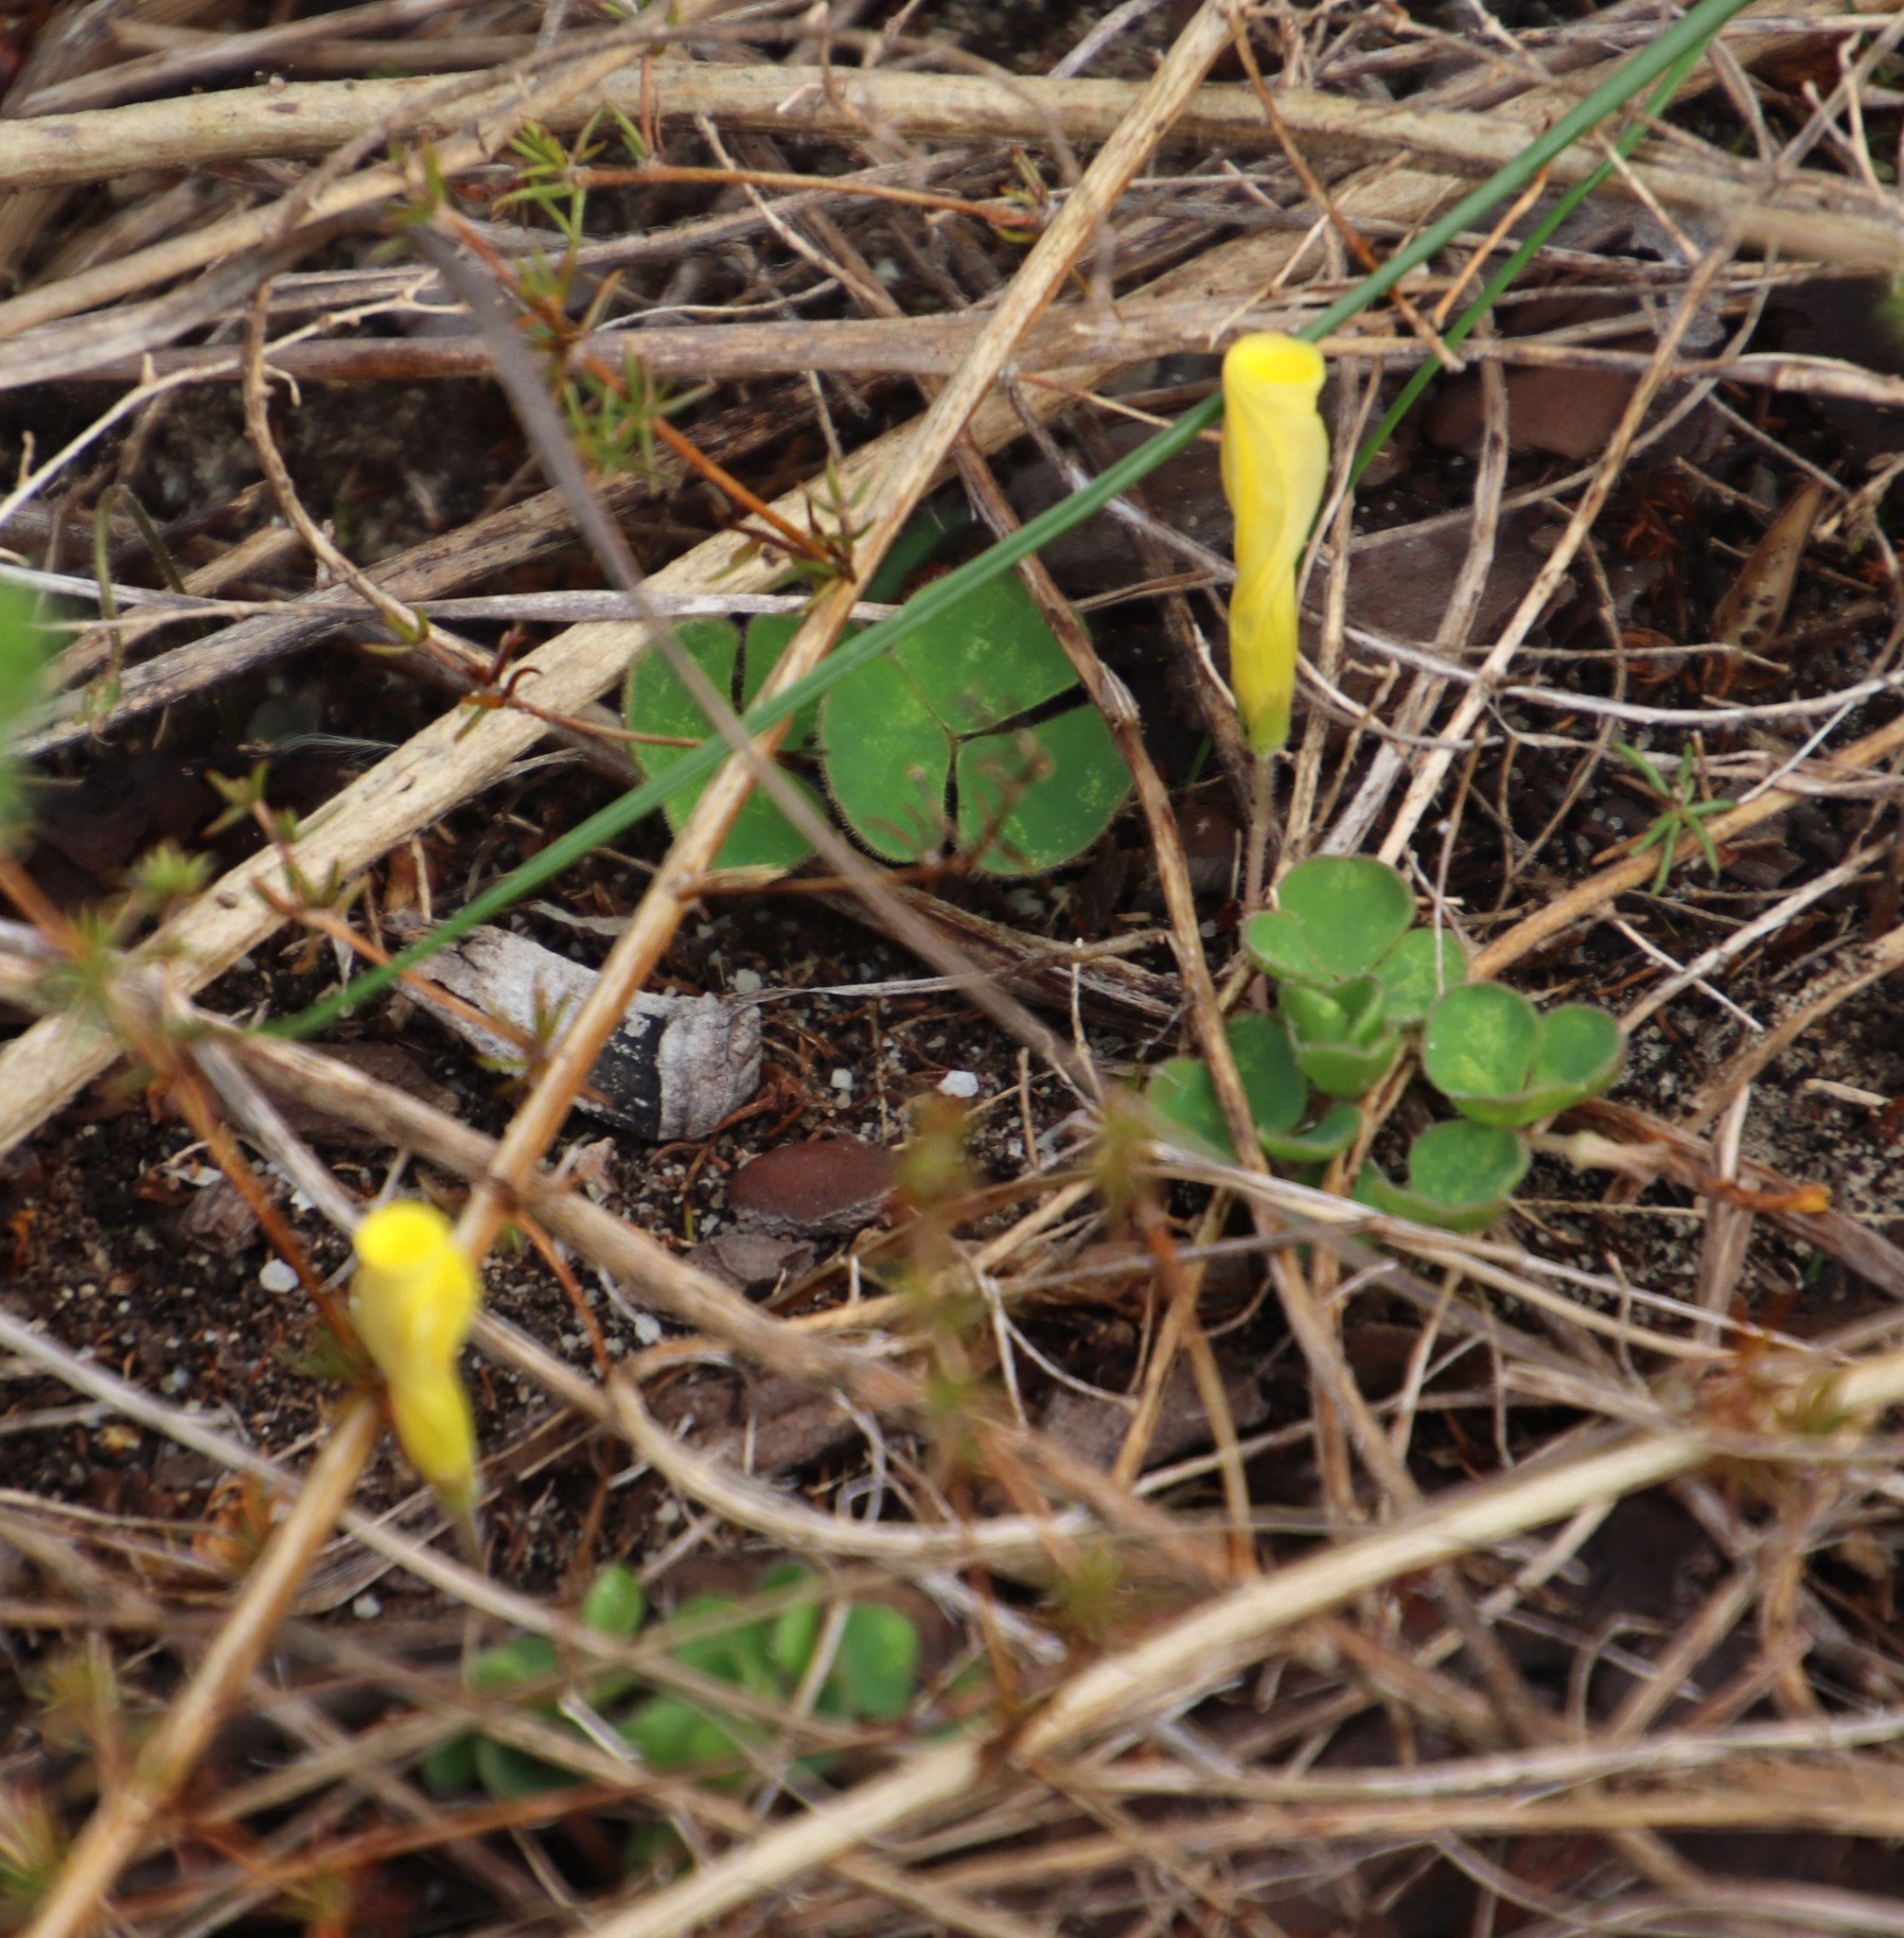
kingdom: Plantae
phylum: Tracheophyta
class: Magnoliopsida
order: Oxalidales
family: Oxalidaceae
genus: Oxalis
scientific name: Oxalis luteola
